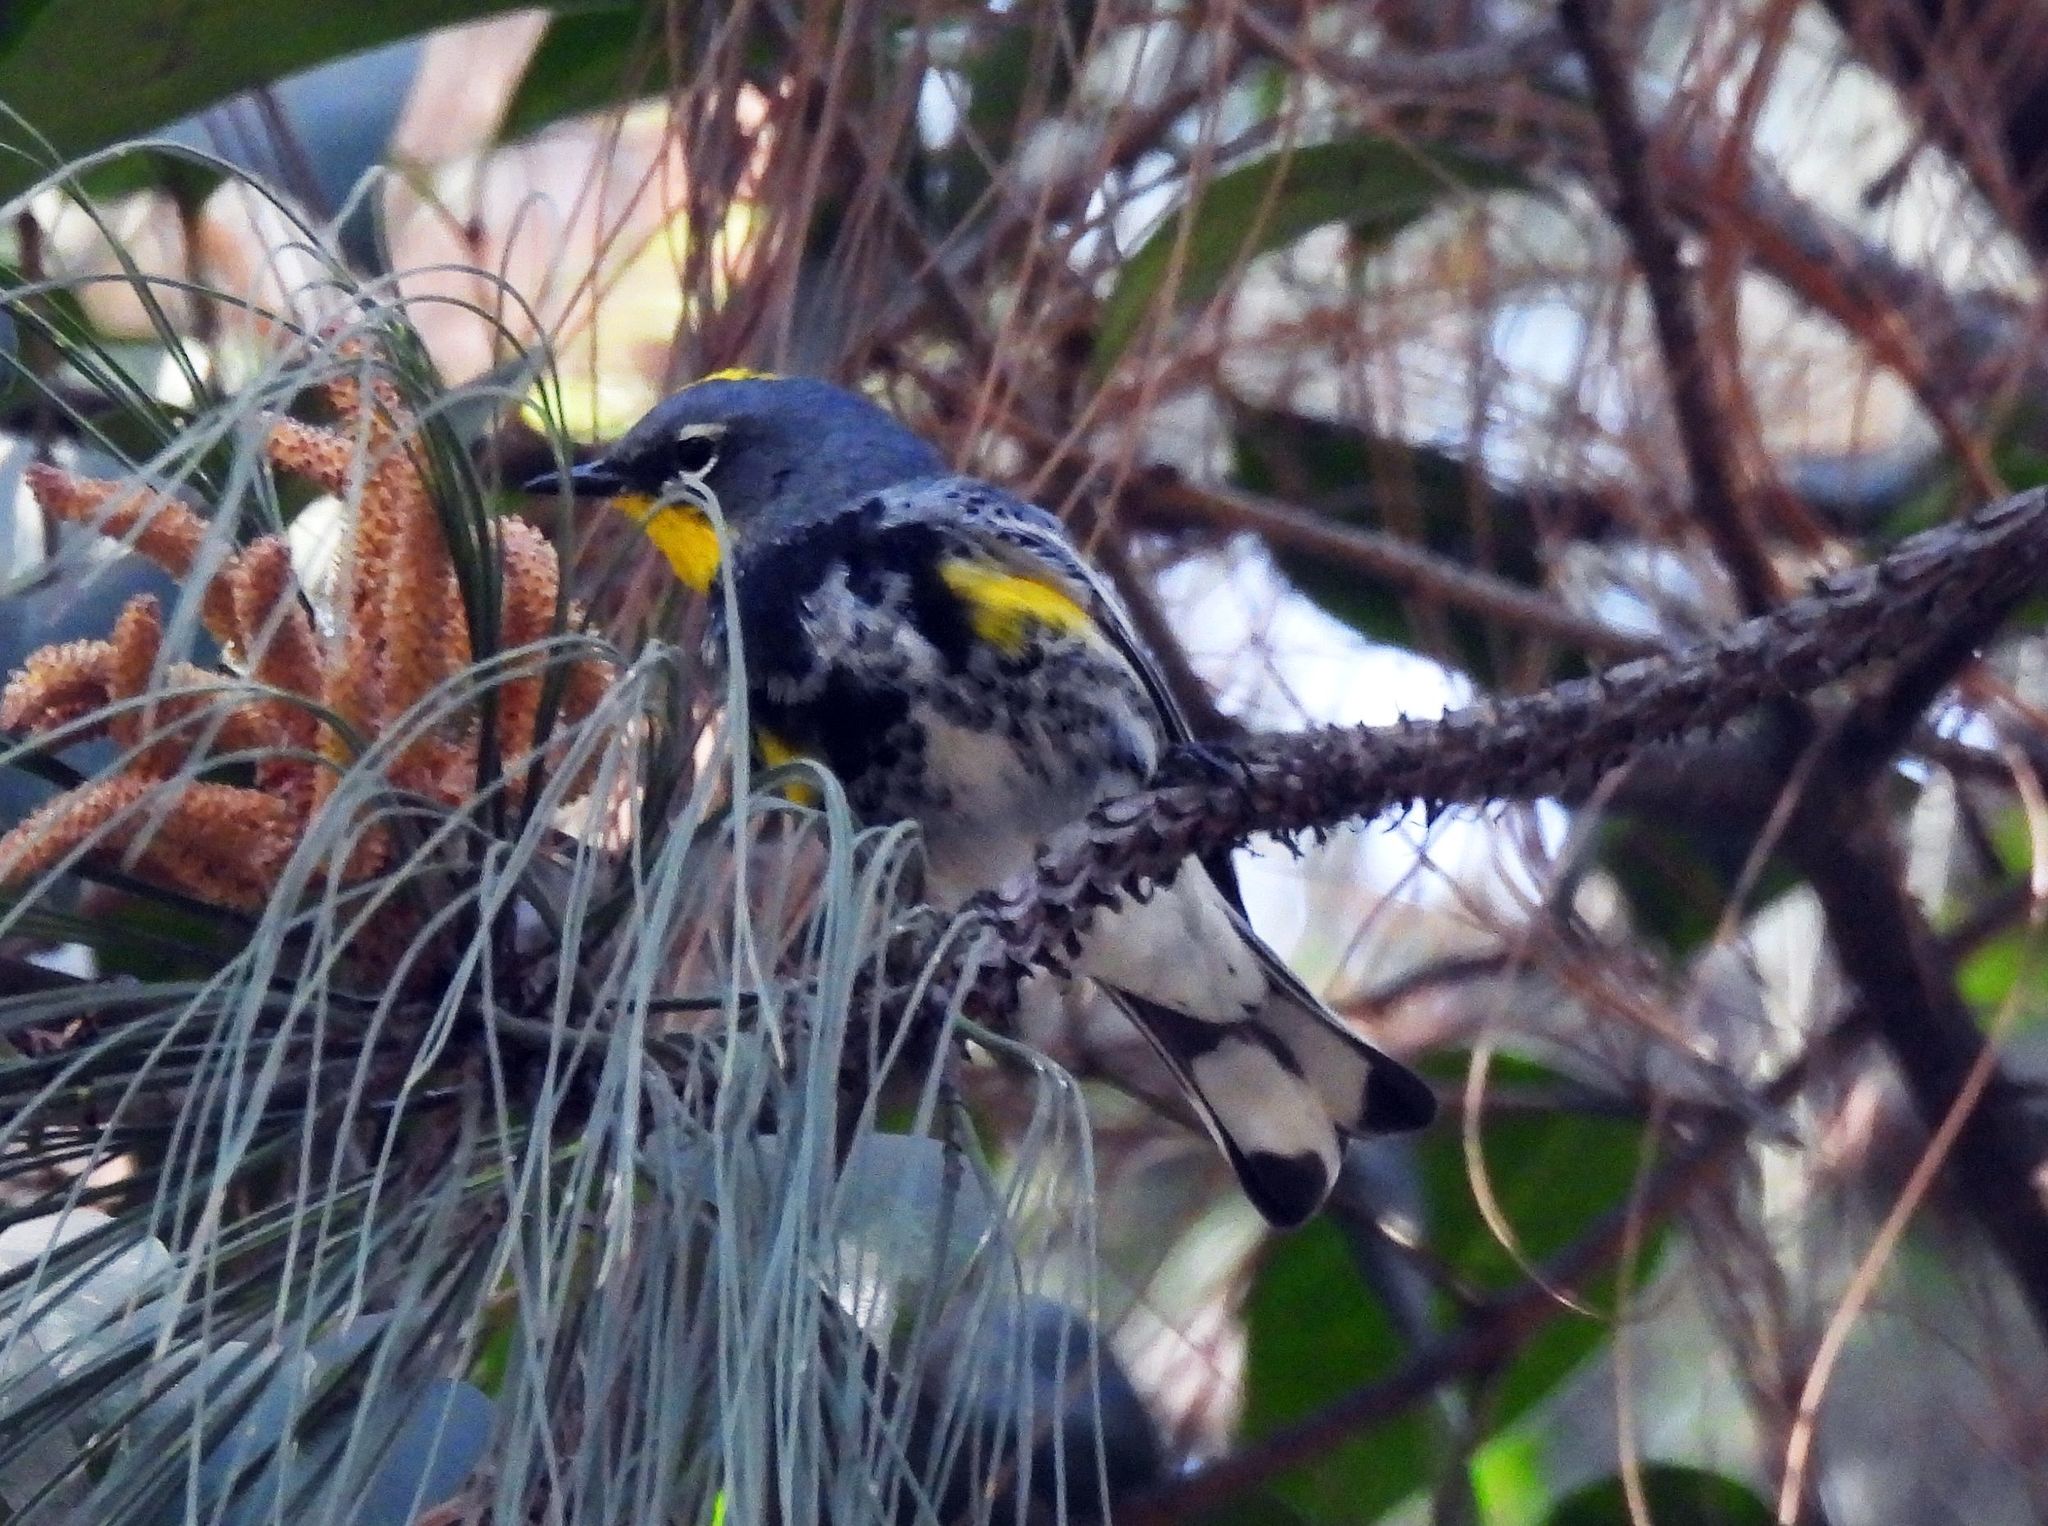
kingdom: Animalia
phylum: Chordata
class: Aves
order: Passeriformes
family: Parulidae
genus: Setophaga
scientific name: Setophaga coronata
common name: Myrtle warbler
